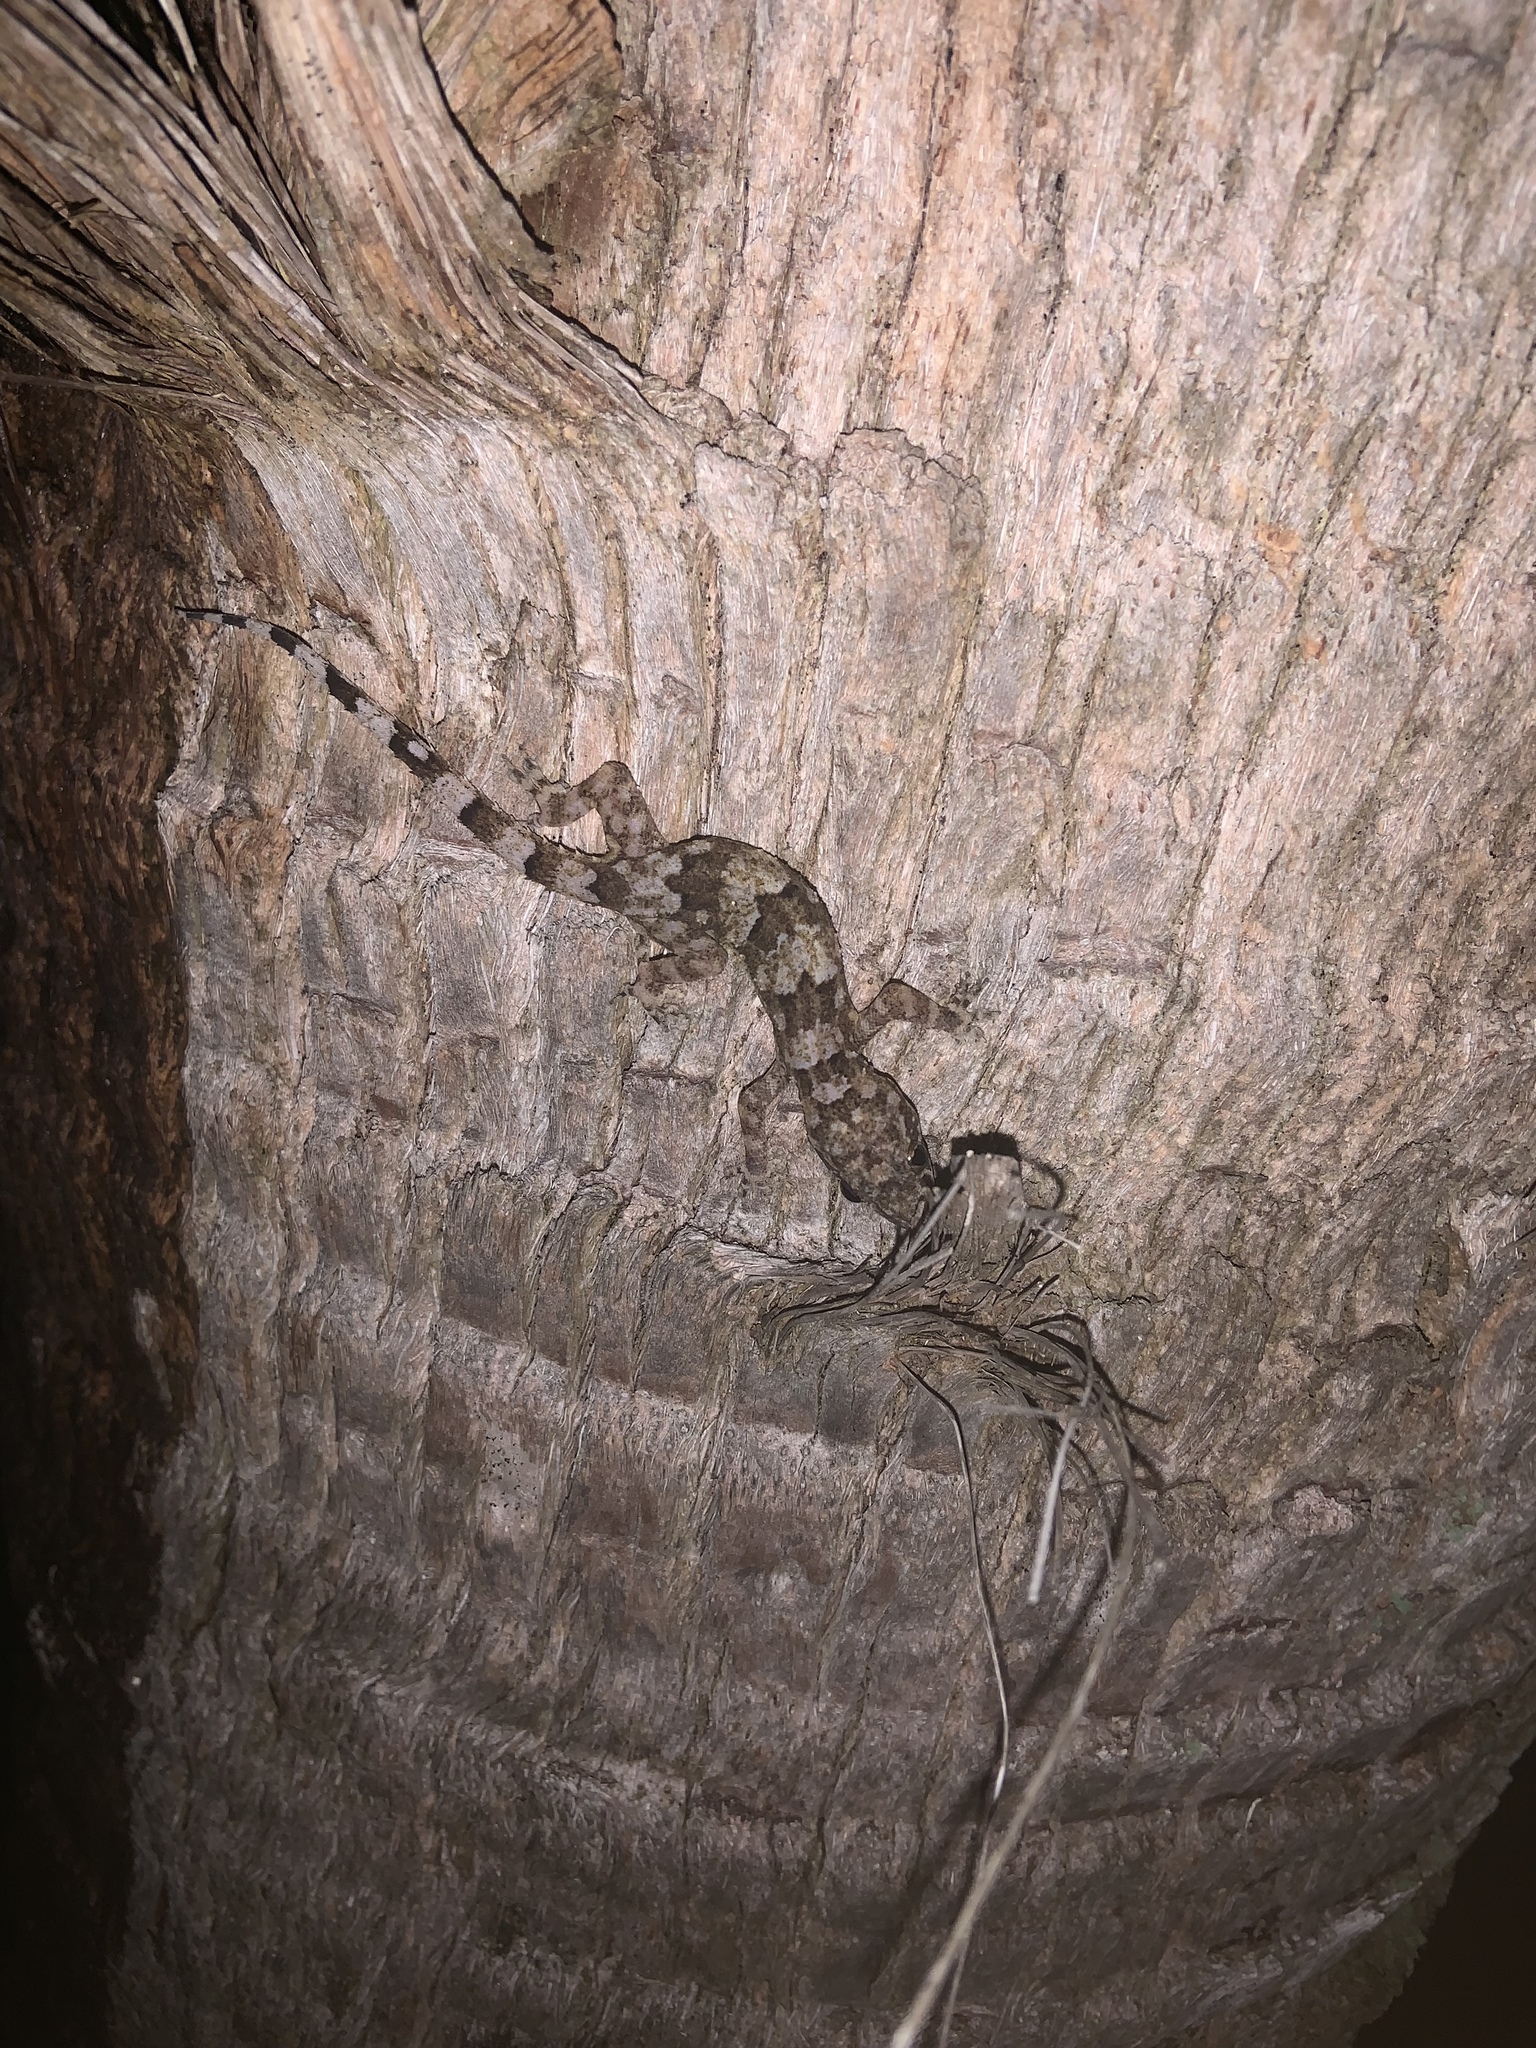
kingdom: Animalia
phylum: Chordata
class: Squamata
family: Gekkonidae
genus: Hemidactylus
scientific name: Hemidactylus mabouia
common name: House gecko
